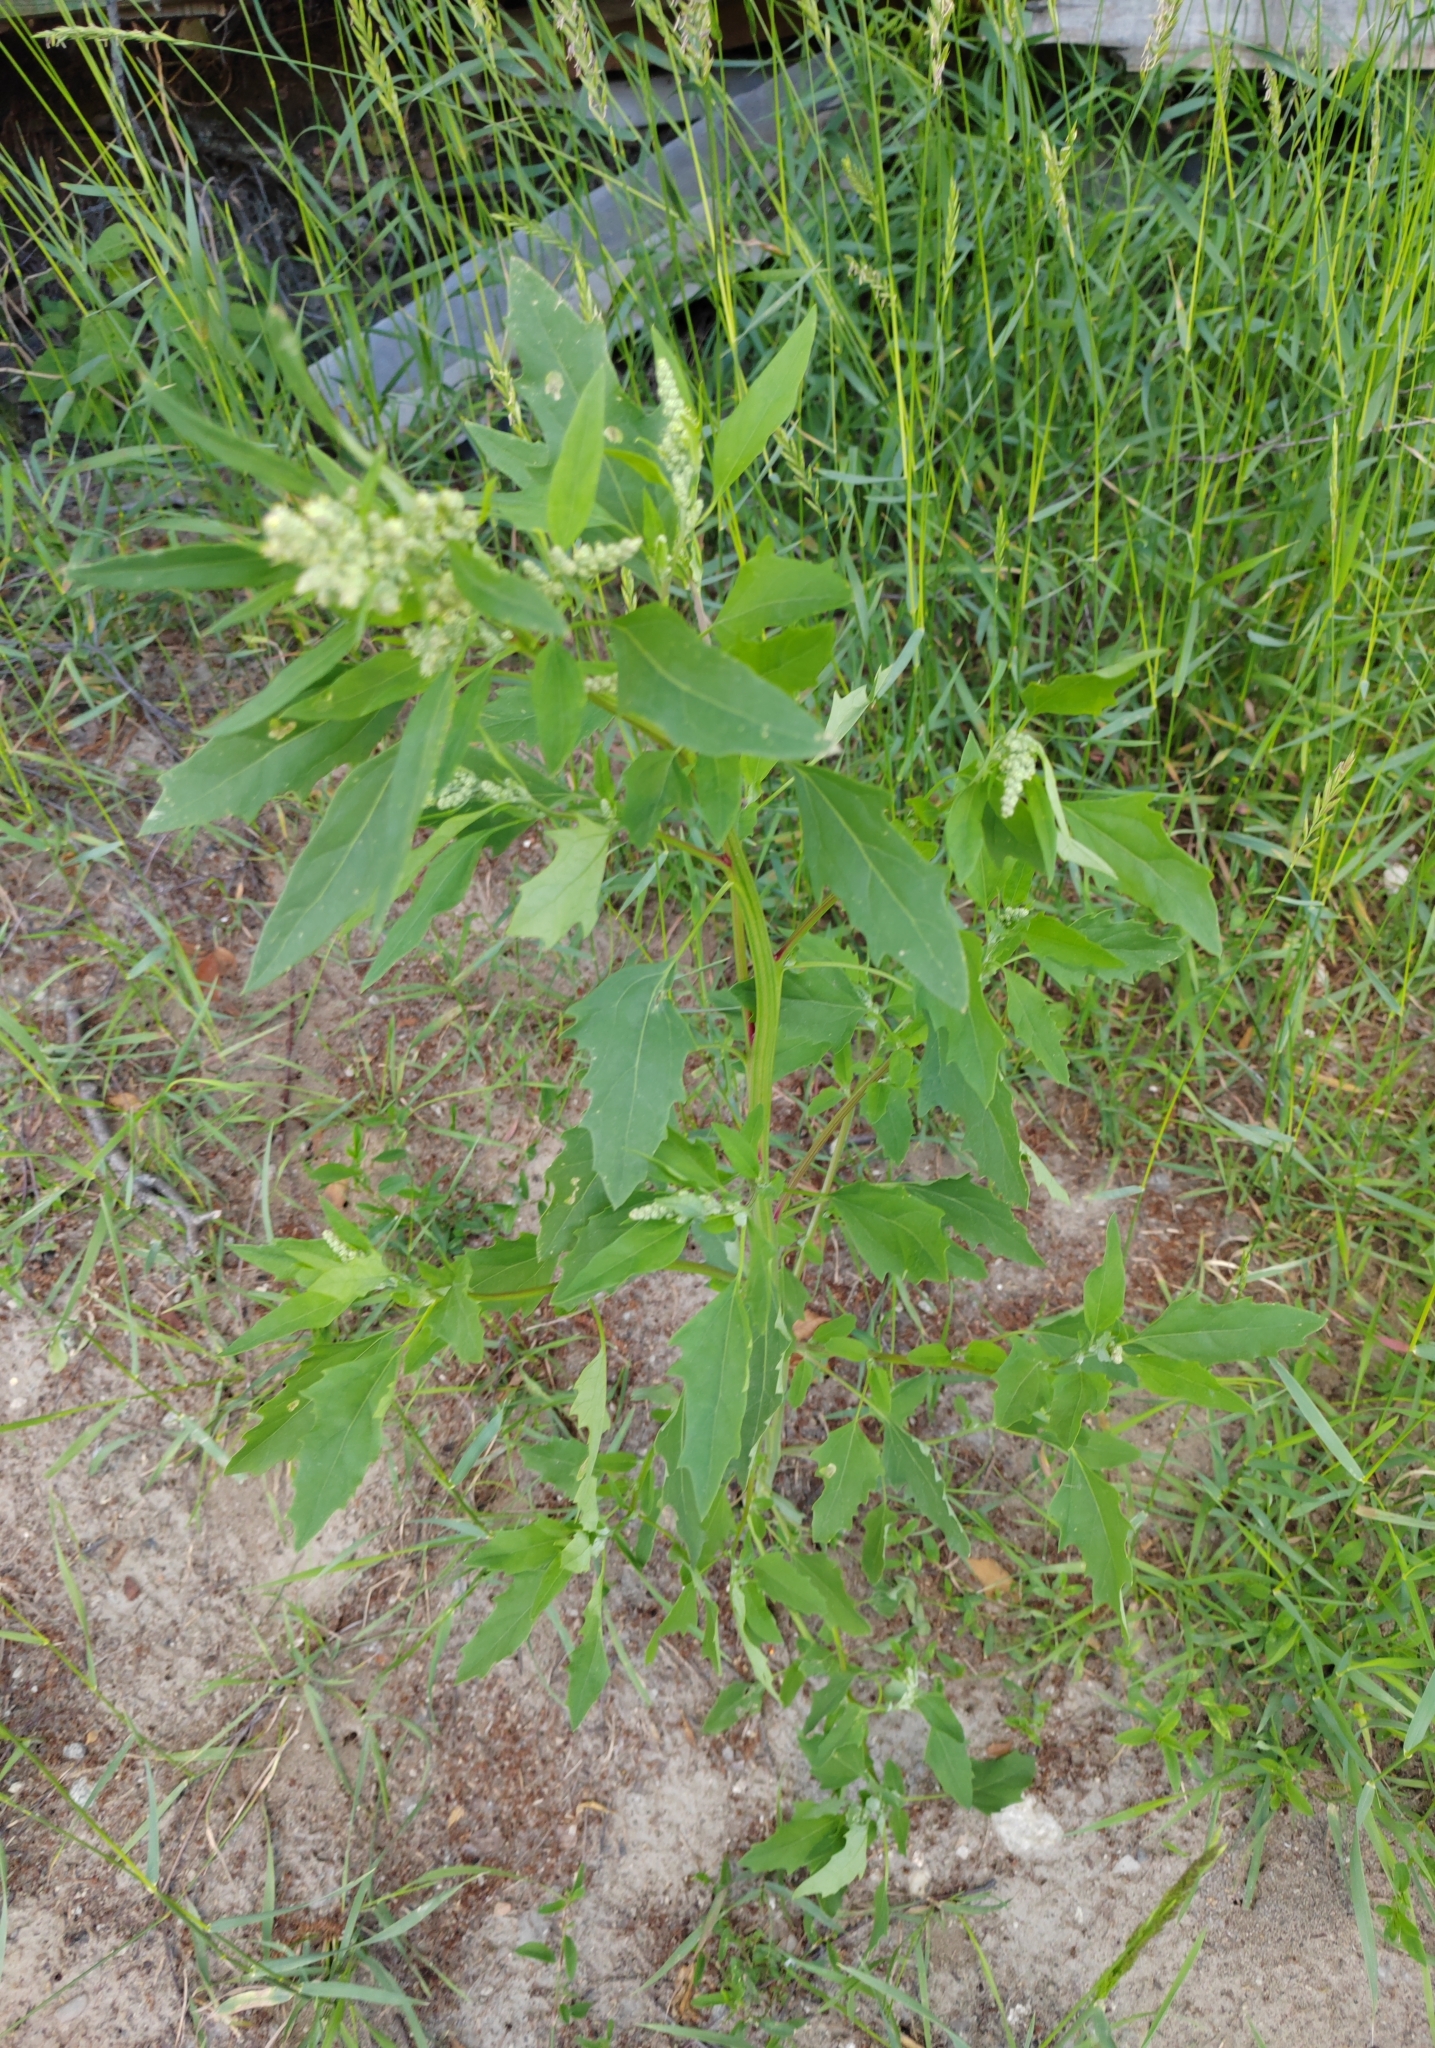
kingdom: Plantae
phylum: Tracheophyta
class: Magnoliopsida
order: Caryophyllales
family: Amaranthaceae
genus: Chenopodium
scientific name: Chenopodium album
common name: Fat-hen
